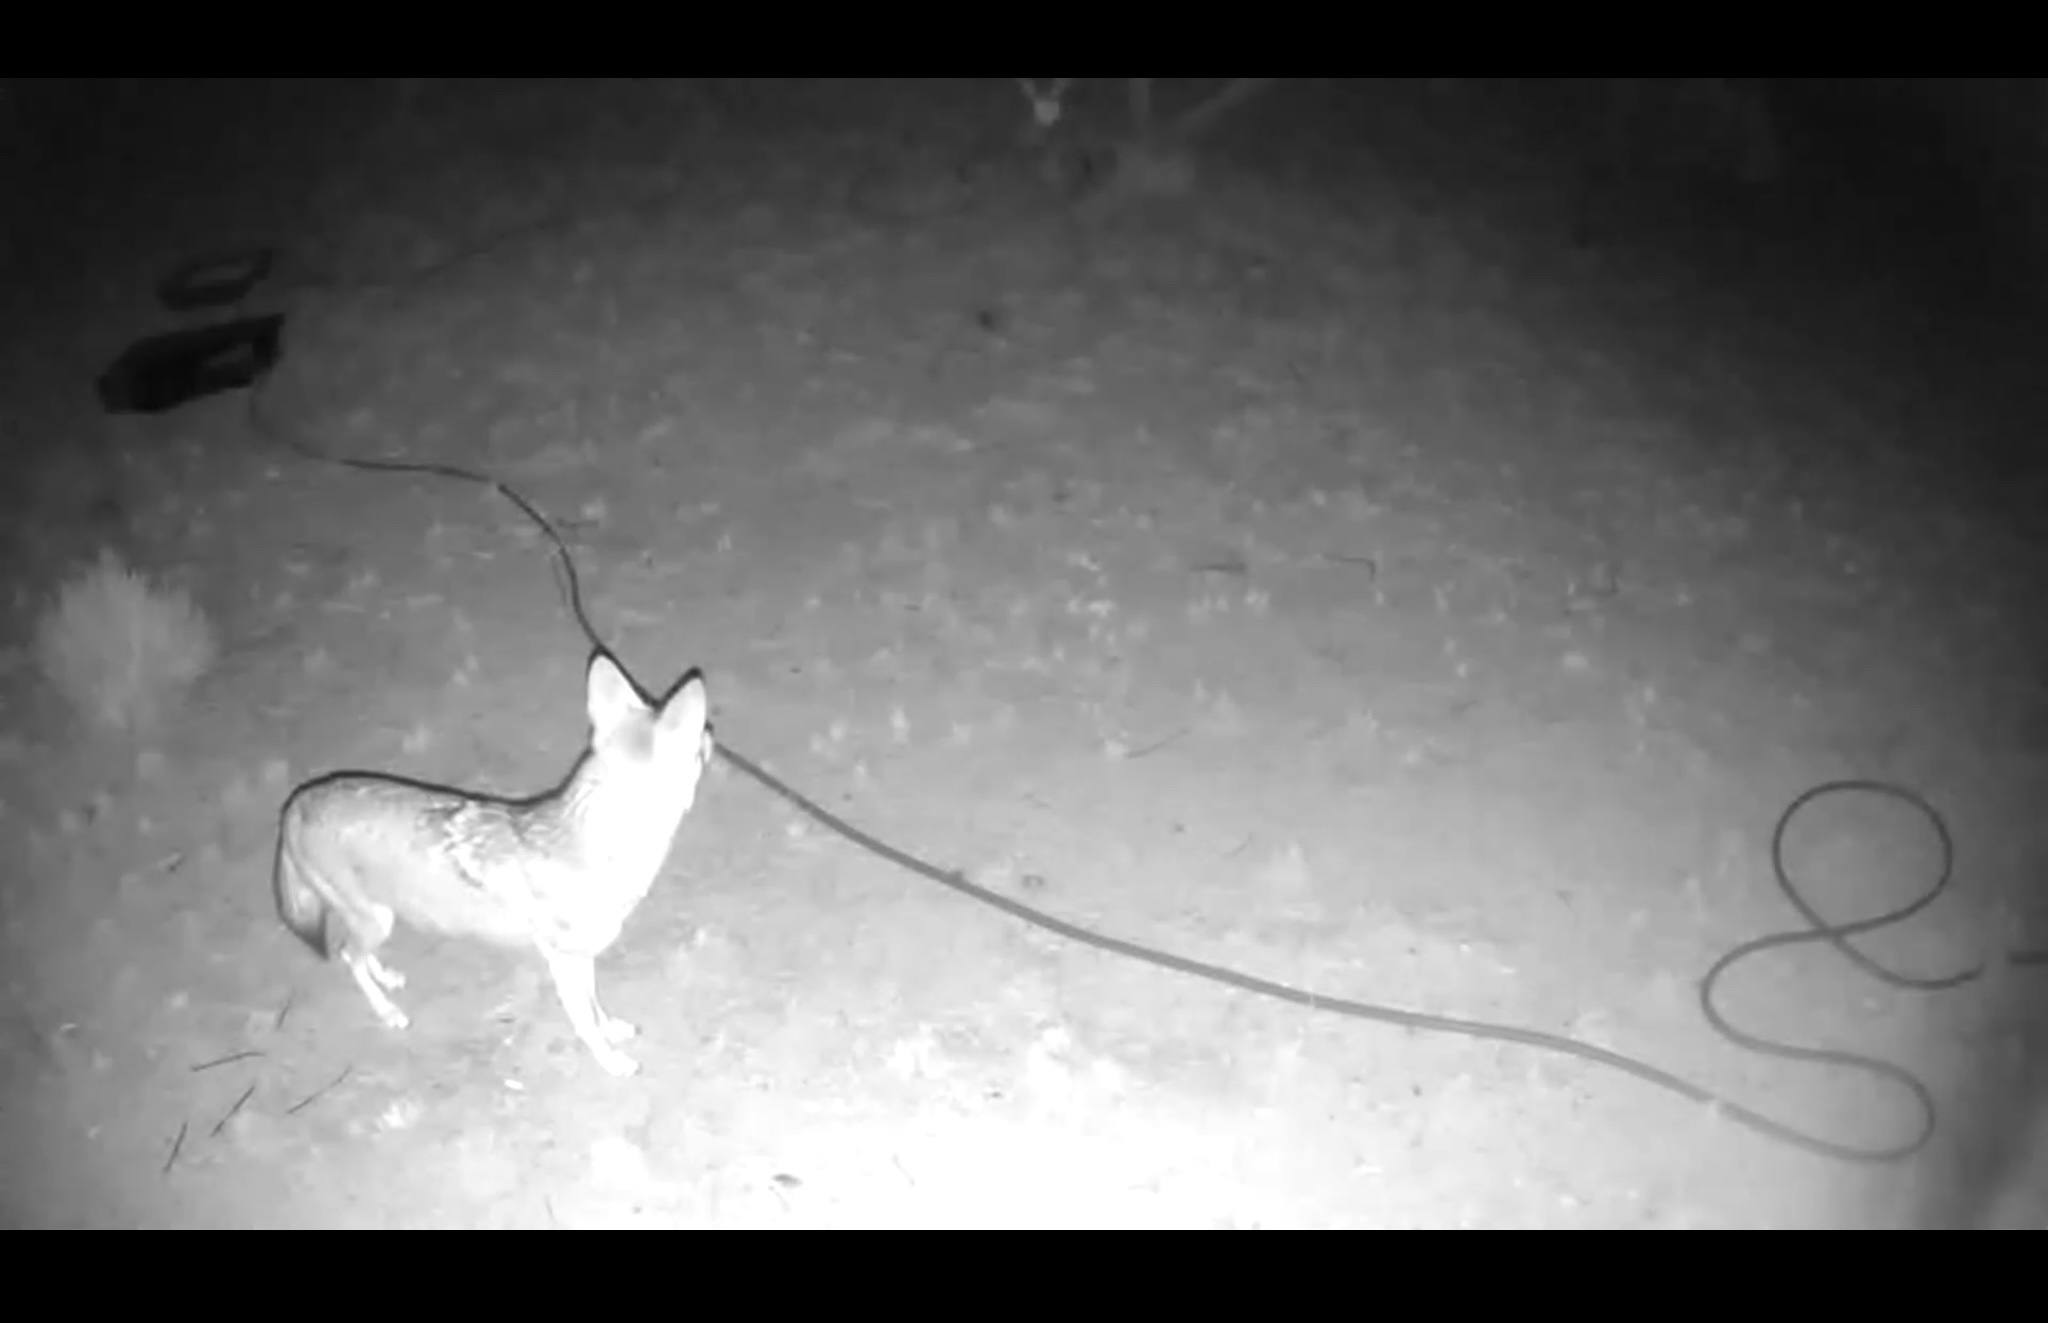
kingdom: Animalia
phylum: Chordata
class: Mammalia
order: Carnivora
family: Canidae
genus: Canis
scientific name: Canis latrans
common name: Coyote
